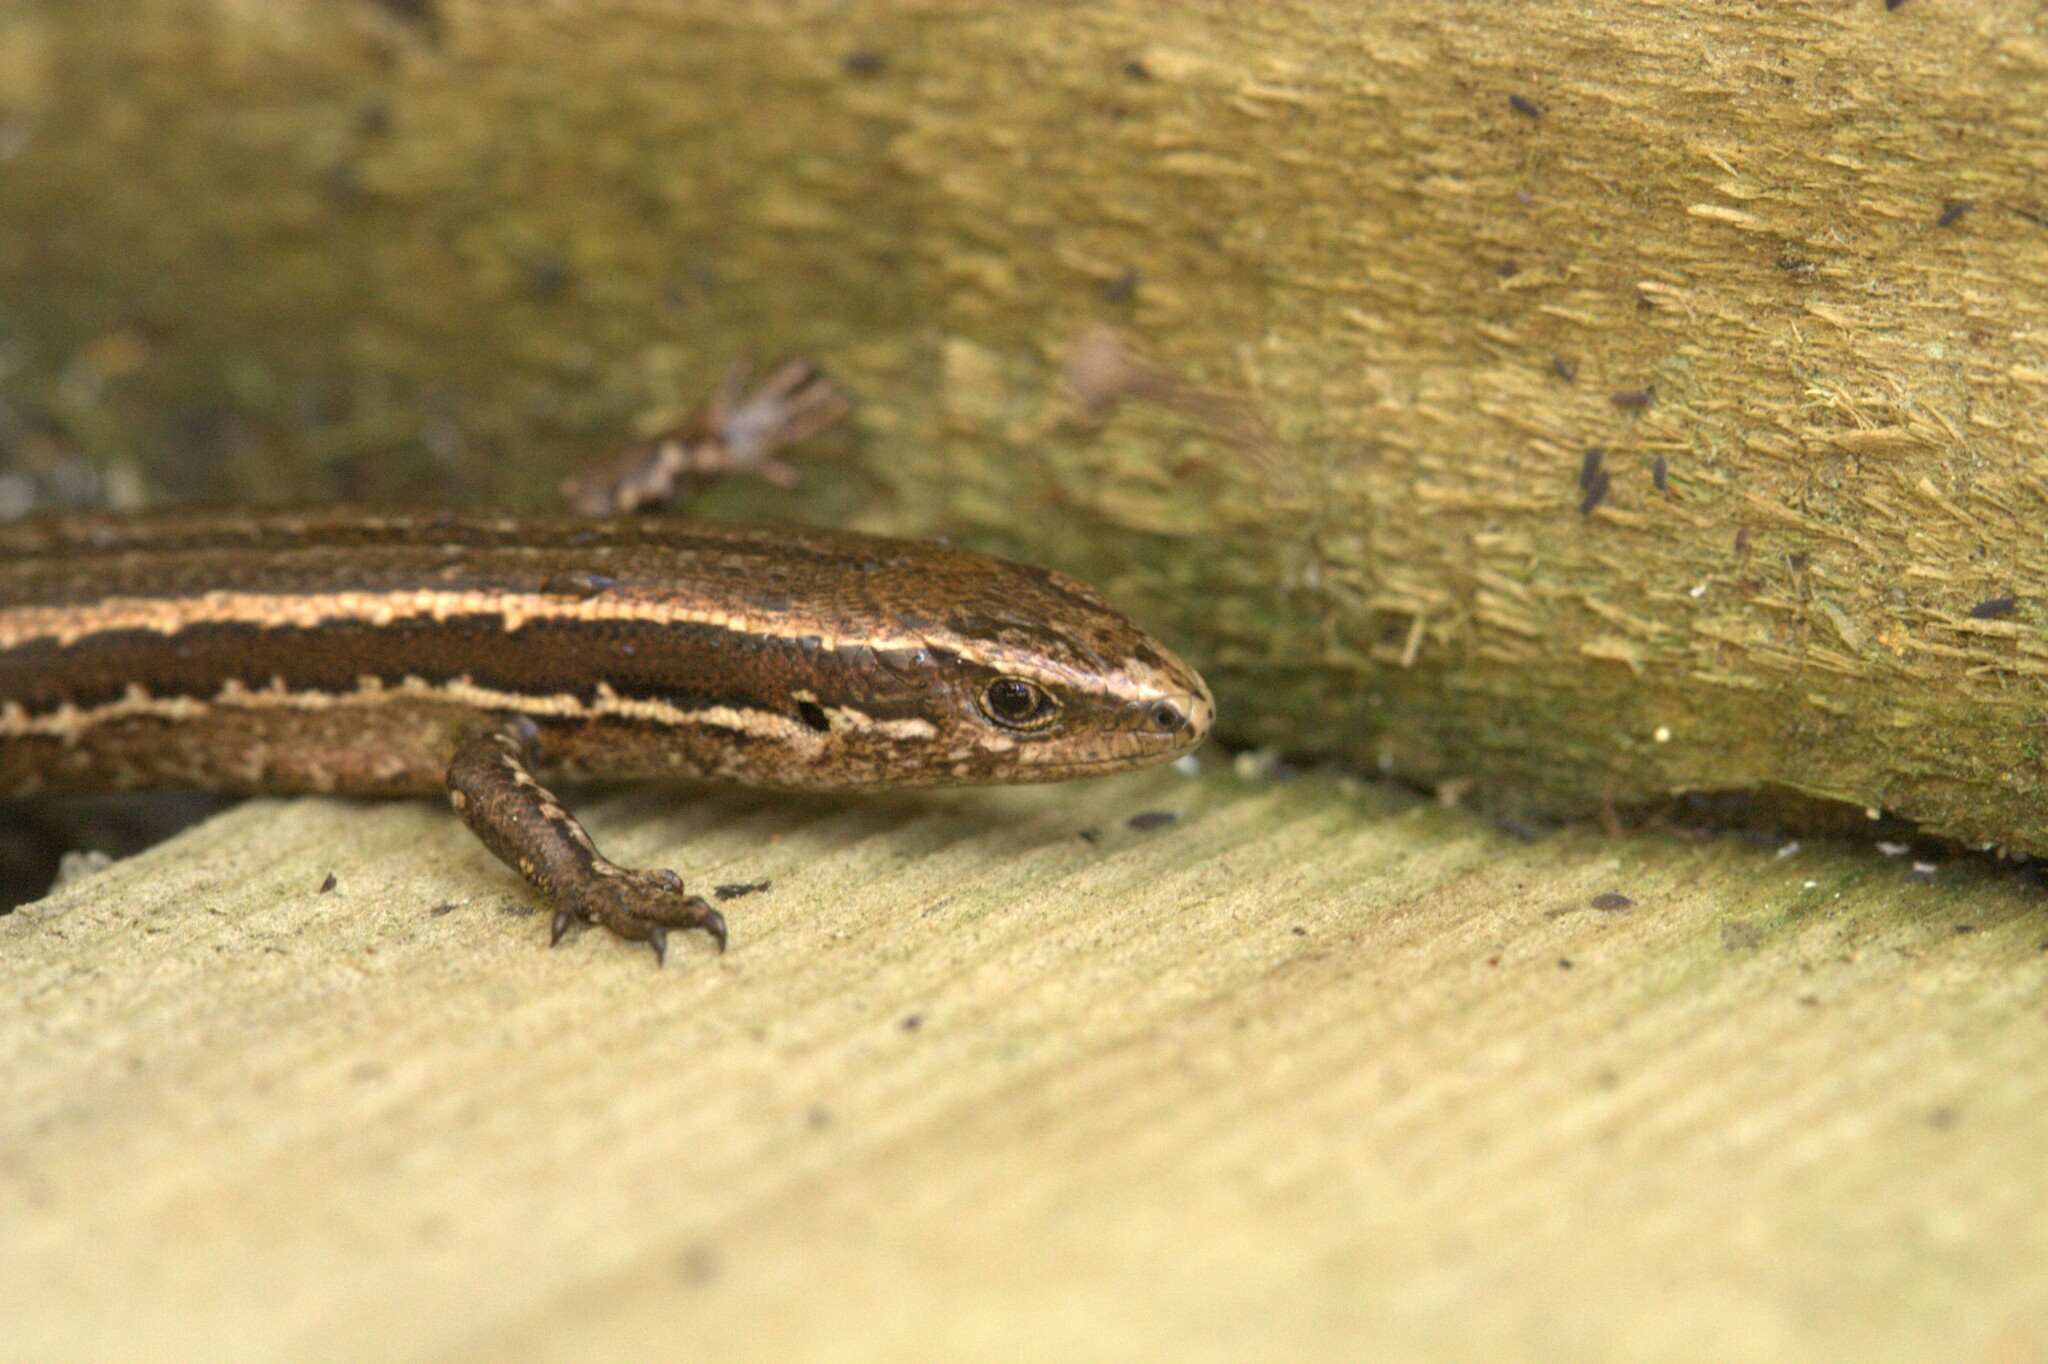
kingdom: Animalia
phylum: Chordata
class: Squamata
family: Scincidae
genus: Oligosoma
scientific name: Oligosoma polychroma
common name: Common new zealand skink
